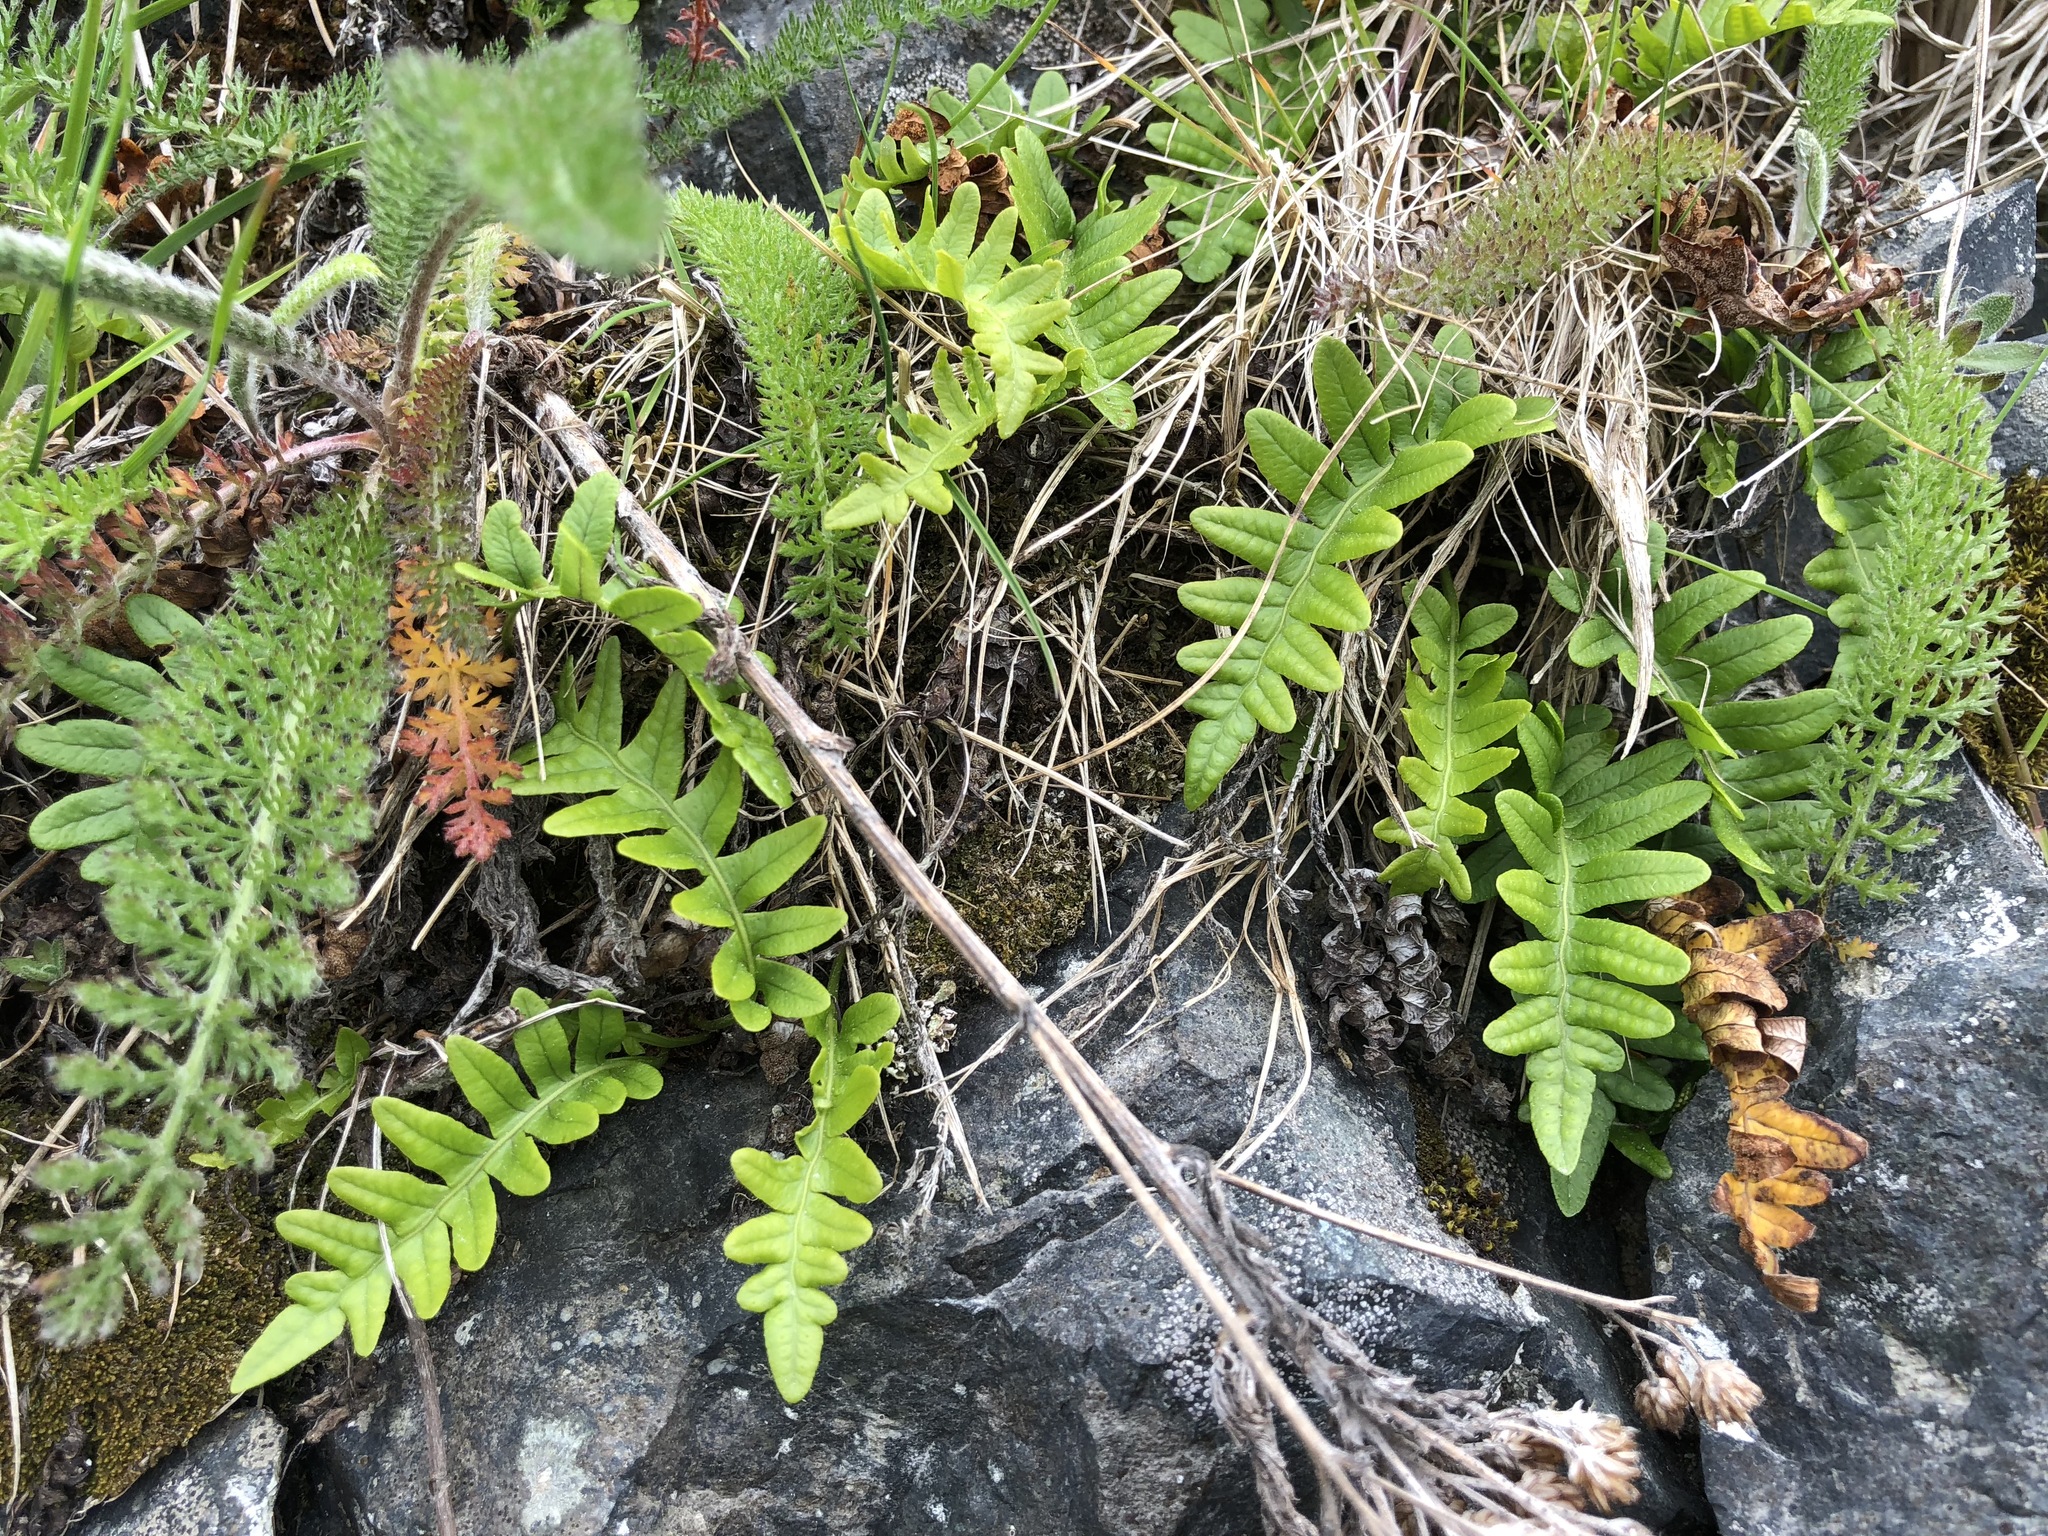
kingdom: Plantae
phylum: Tracheophyta
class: Polypodiopsida
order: Polypodiales
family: Polypodiaceae
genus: Polypodium
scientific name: Polypodium glycyrrhiza
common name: Licorice fern
